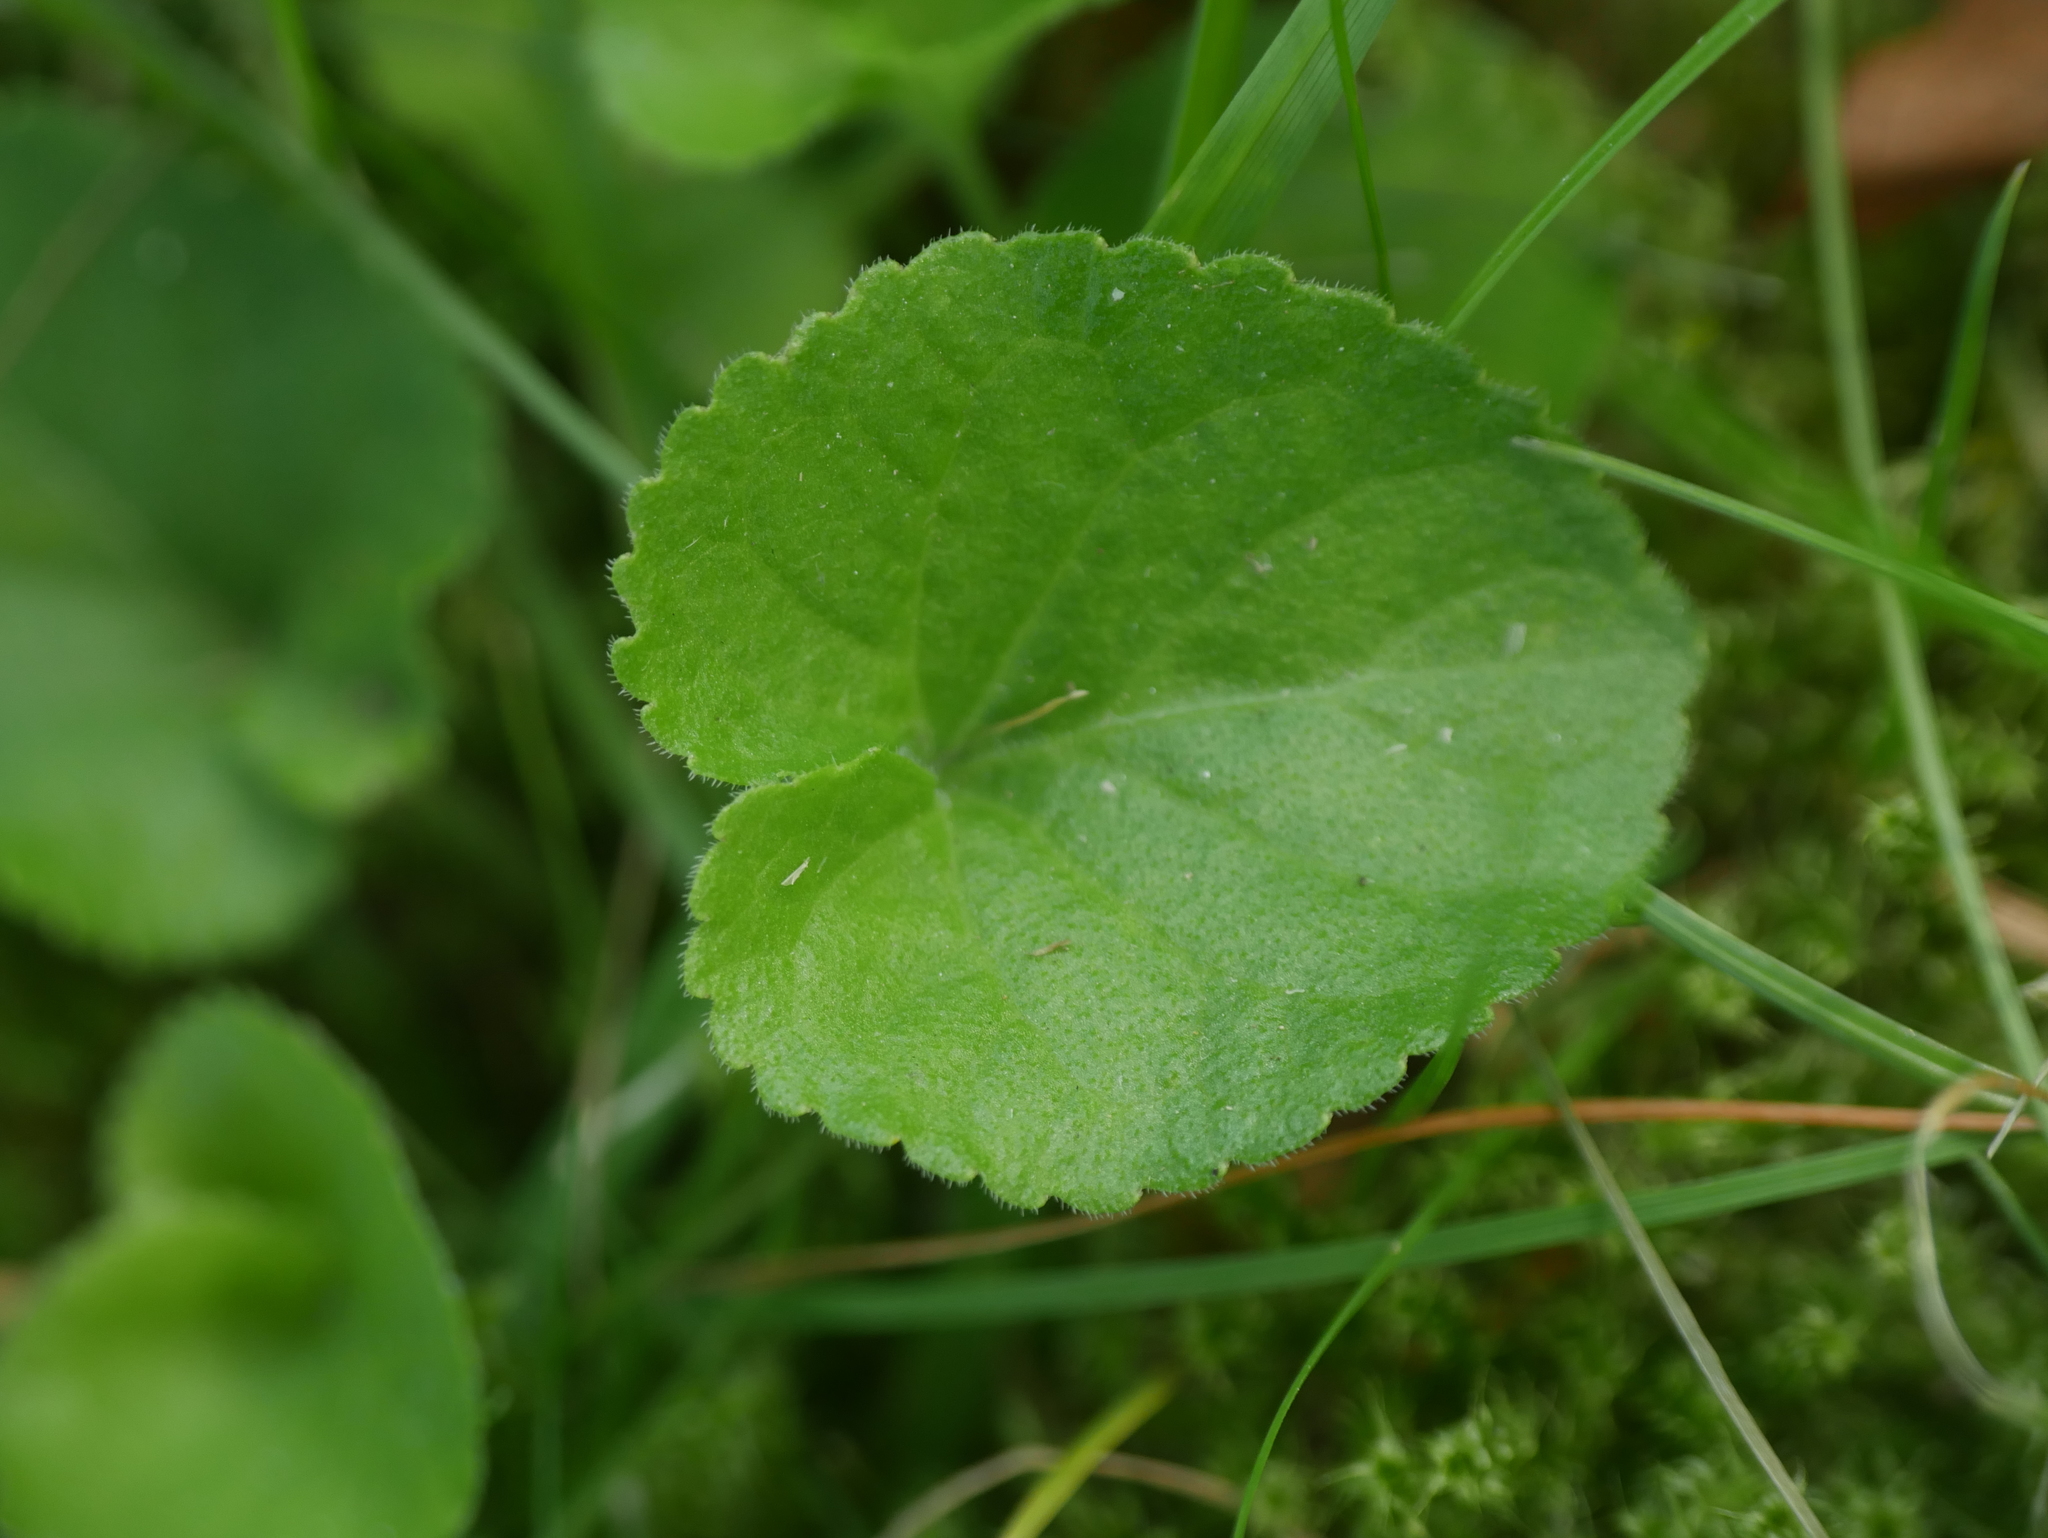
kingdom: Plantae
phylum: Tracheophyta
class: Magnoliopsida
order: Malpighiales
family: Violaceae
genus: Viola
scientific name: Viola odorata
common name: Sweet violet
